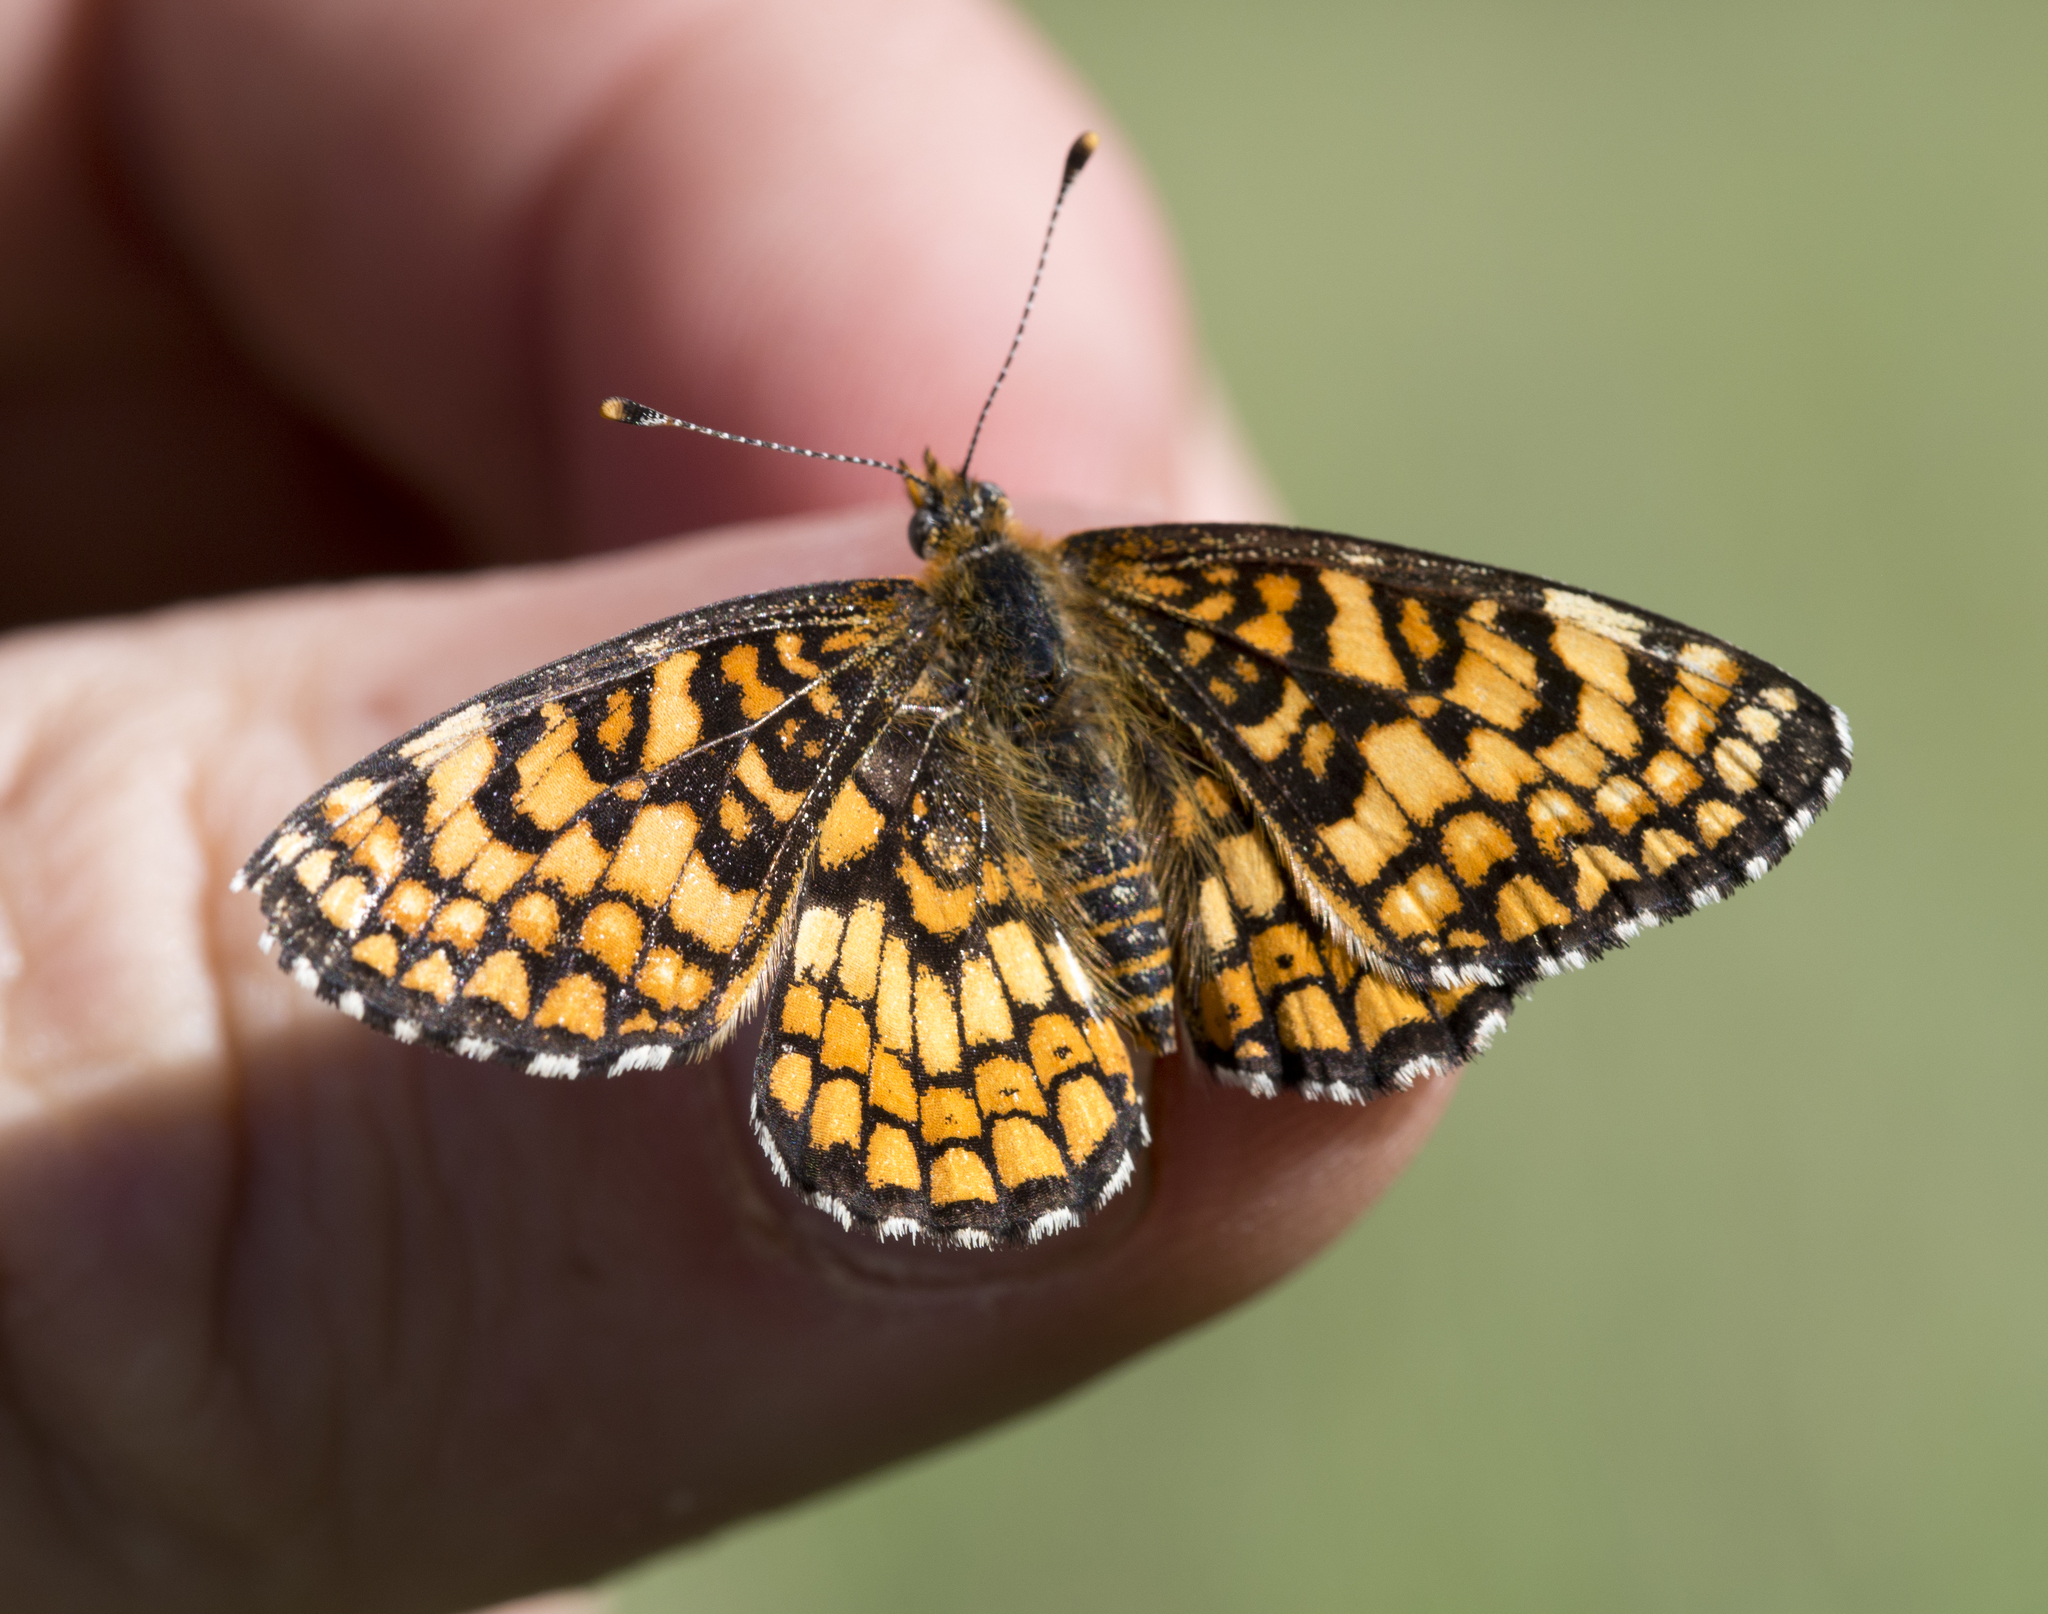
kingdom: Animalia
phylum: Arthropoda
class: Insecta
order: Lepidoptera
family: Nymphalidae
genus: Poladryas
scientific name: Poladryas minuta
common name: Dotted checkerspot
